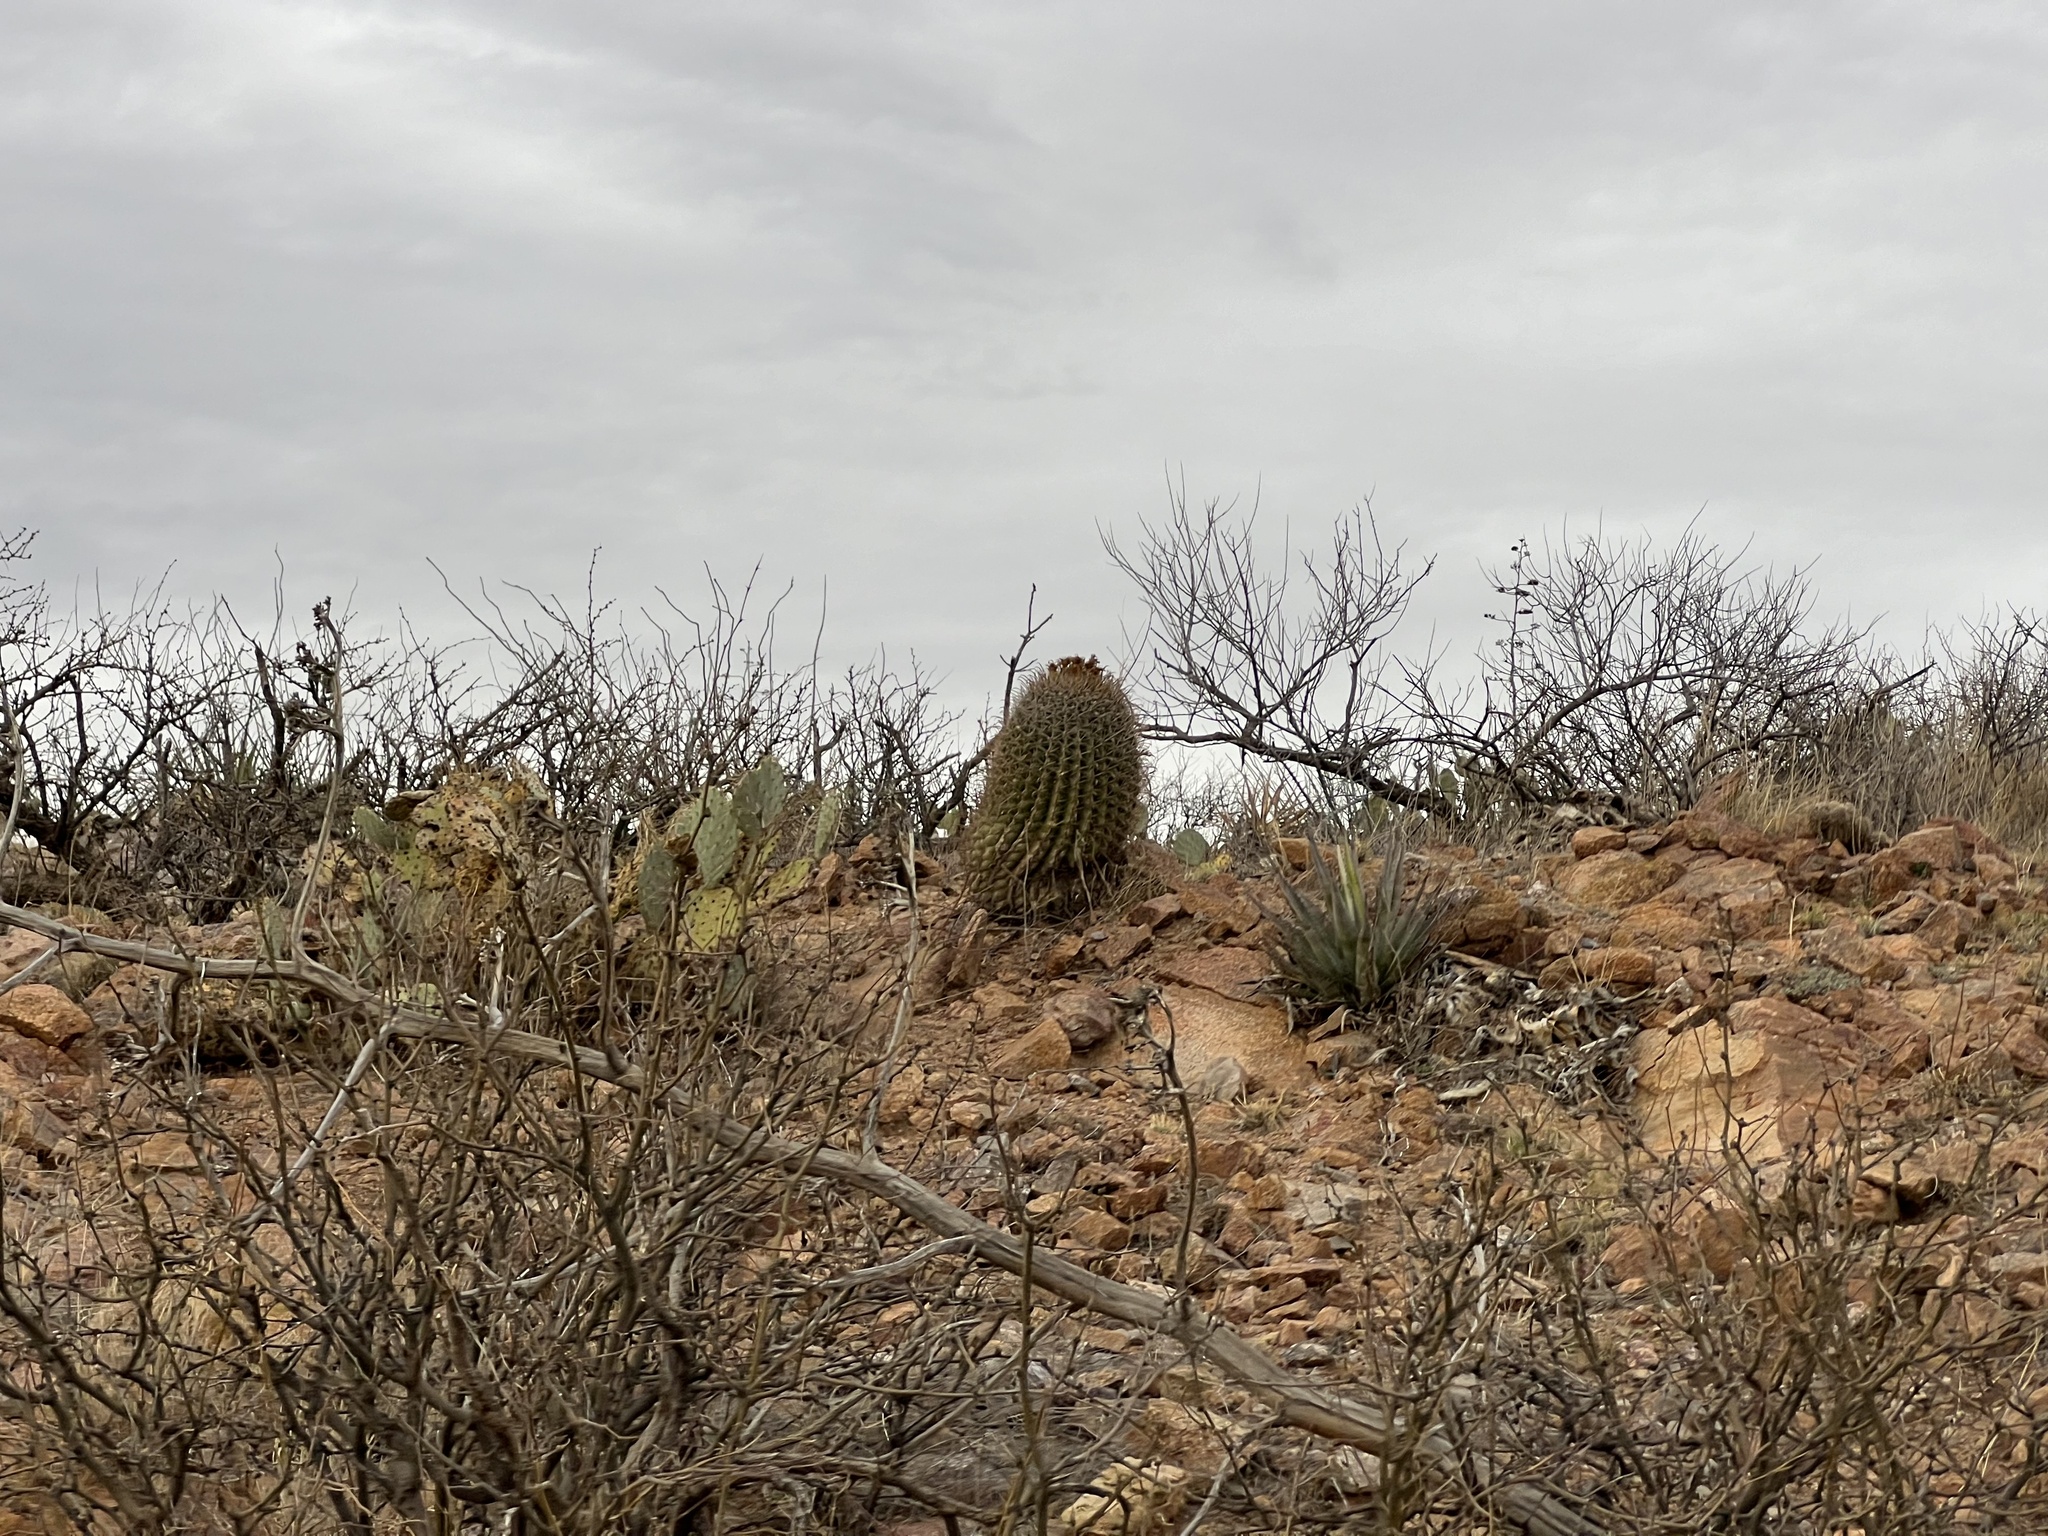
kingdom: Plantae
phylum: Tracheophyta
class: Magnoliopsida
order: Caryophyllales
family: Cactaceae
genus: Ferocactus
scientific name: Ferocactus wislizeni
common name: Candy barrel cactus
